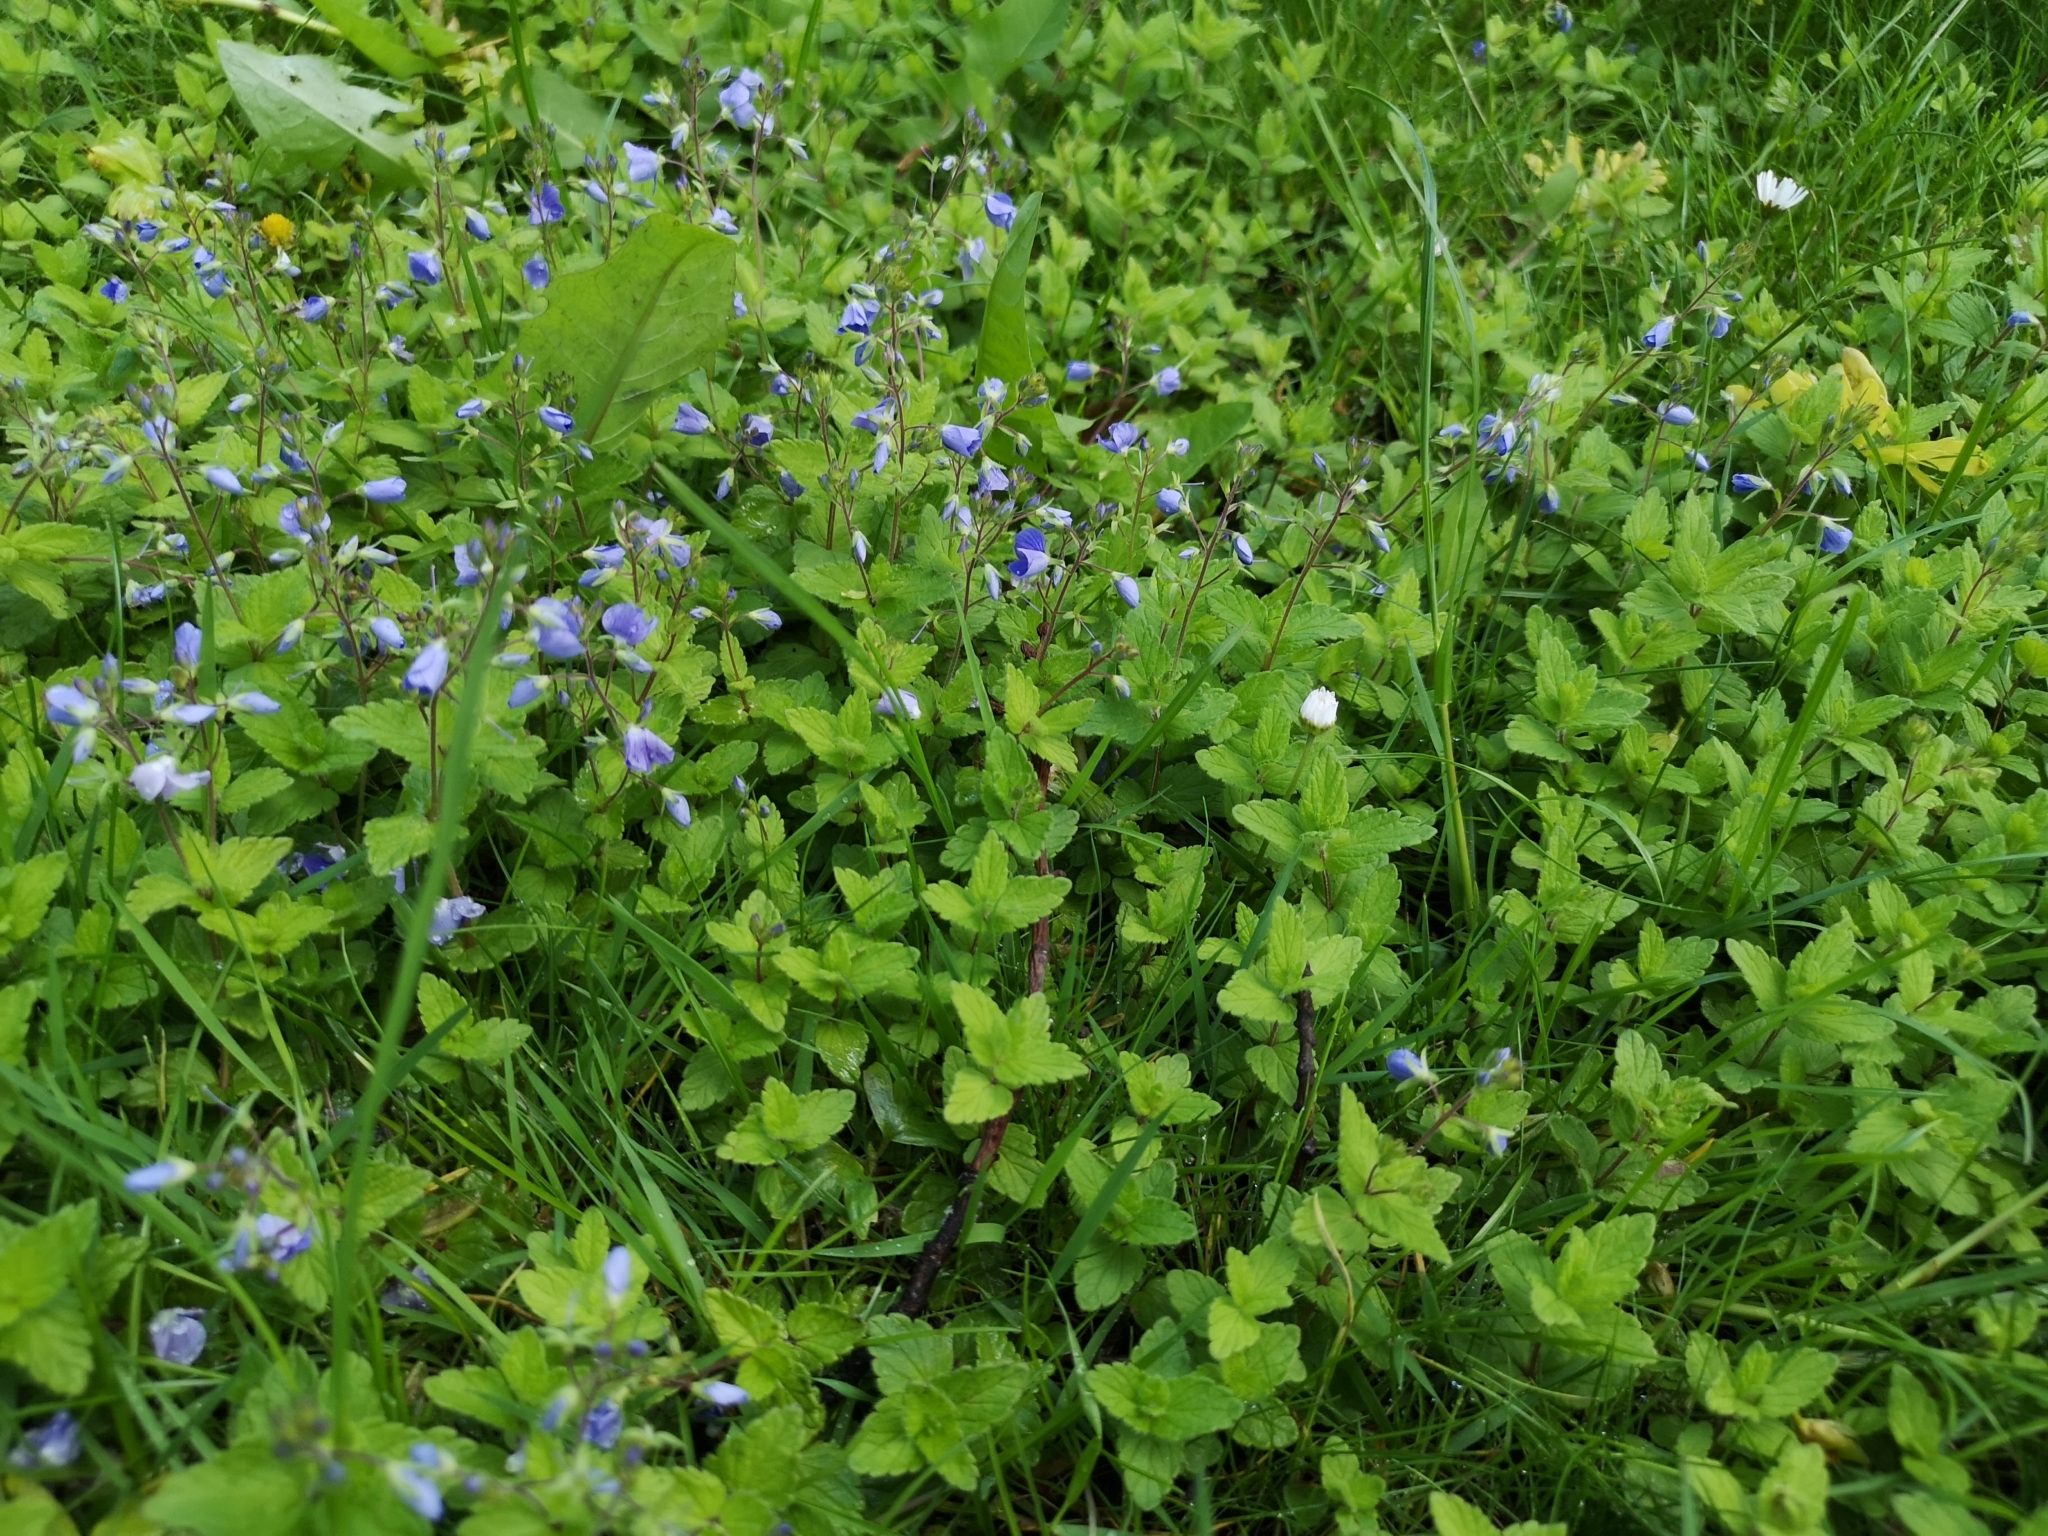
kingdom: Plantae
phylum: Tracheophyta
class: Magnoliopsida
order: Lamiales
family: Plantaginaceae
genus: Veronica
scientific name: Veronica chamaedrys
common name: Germander speedwell
